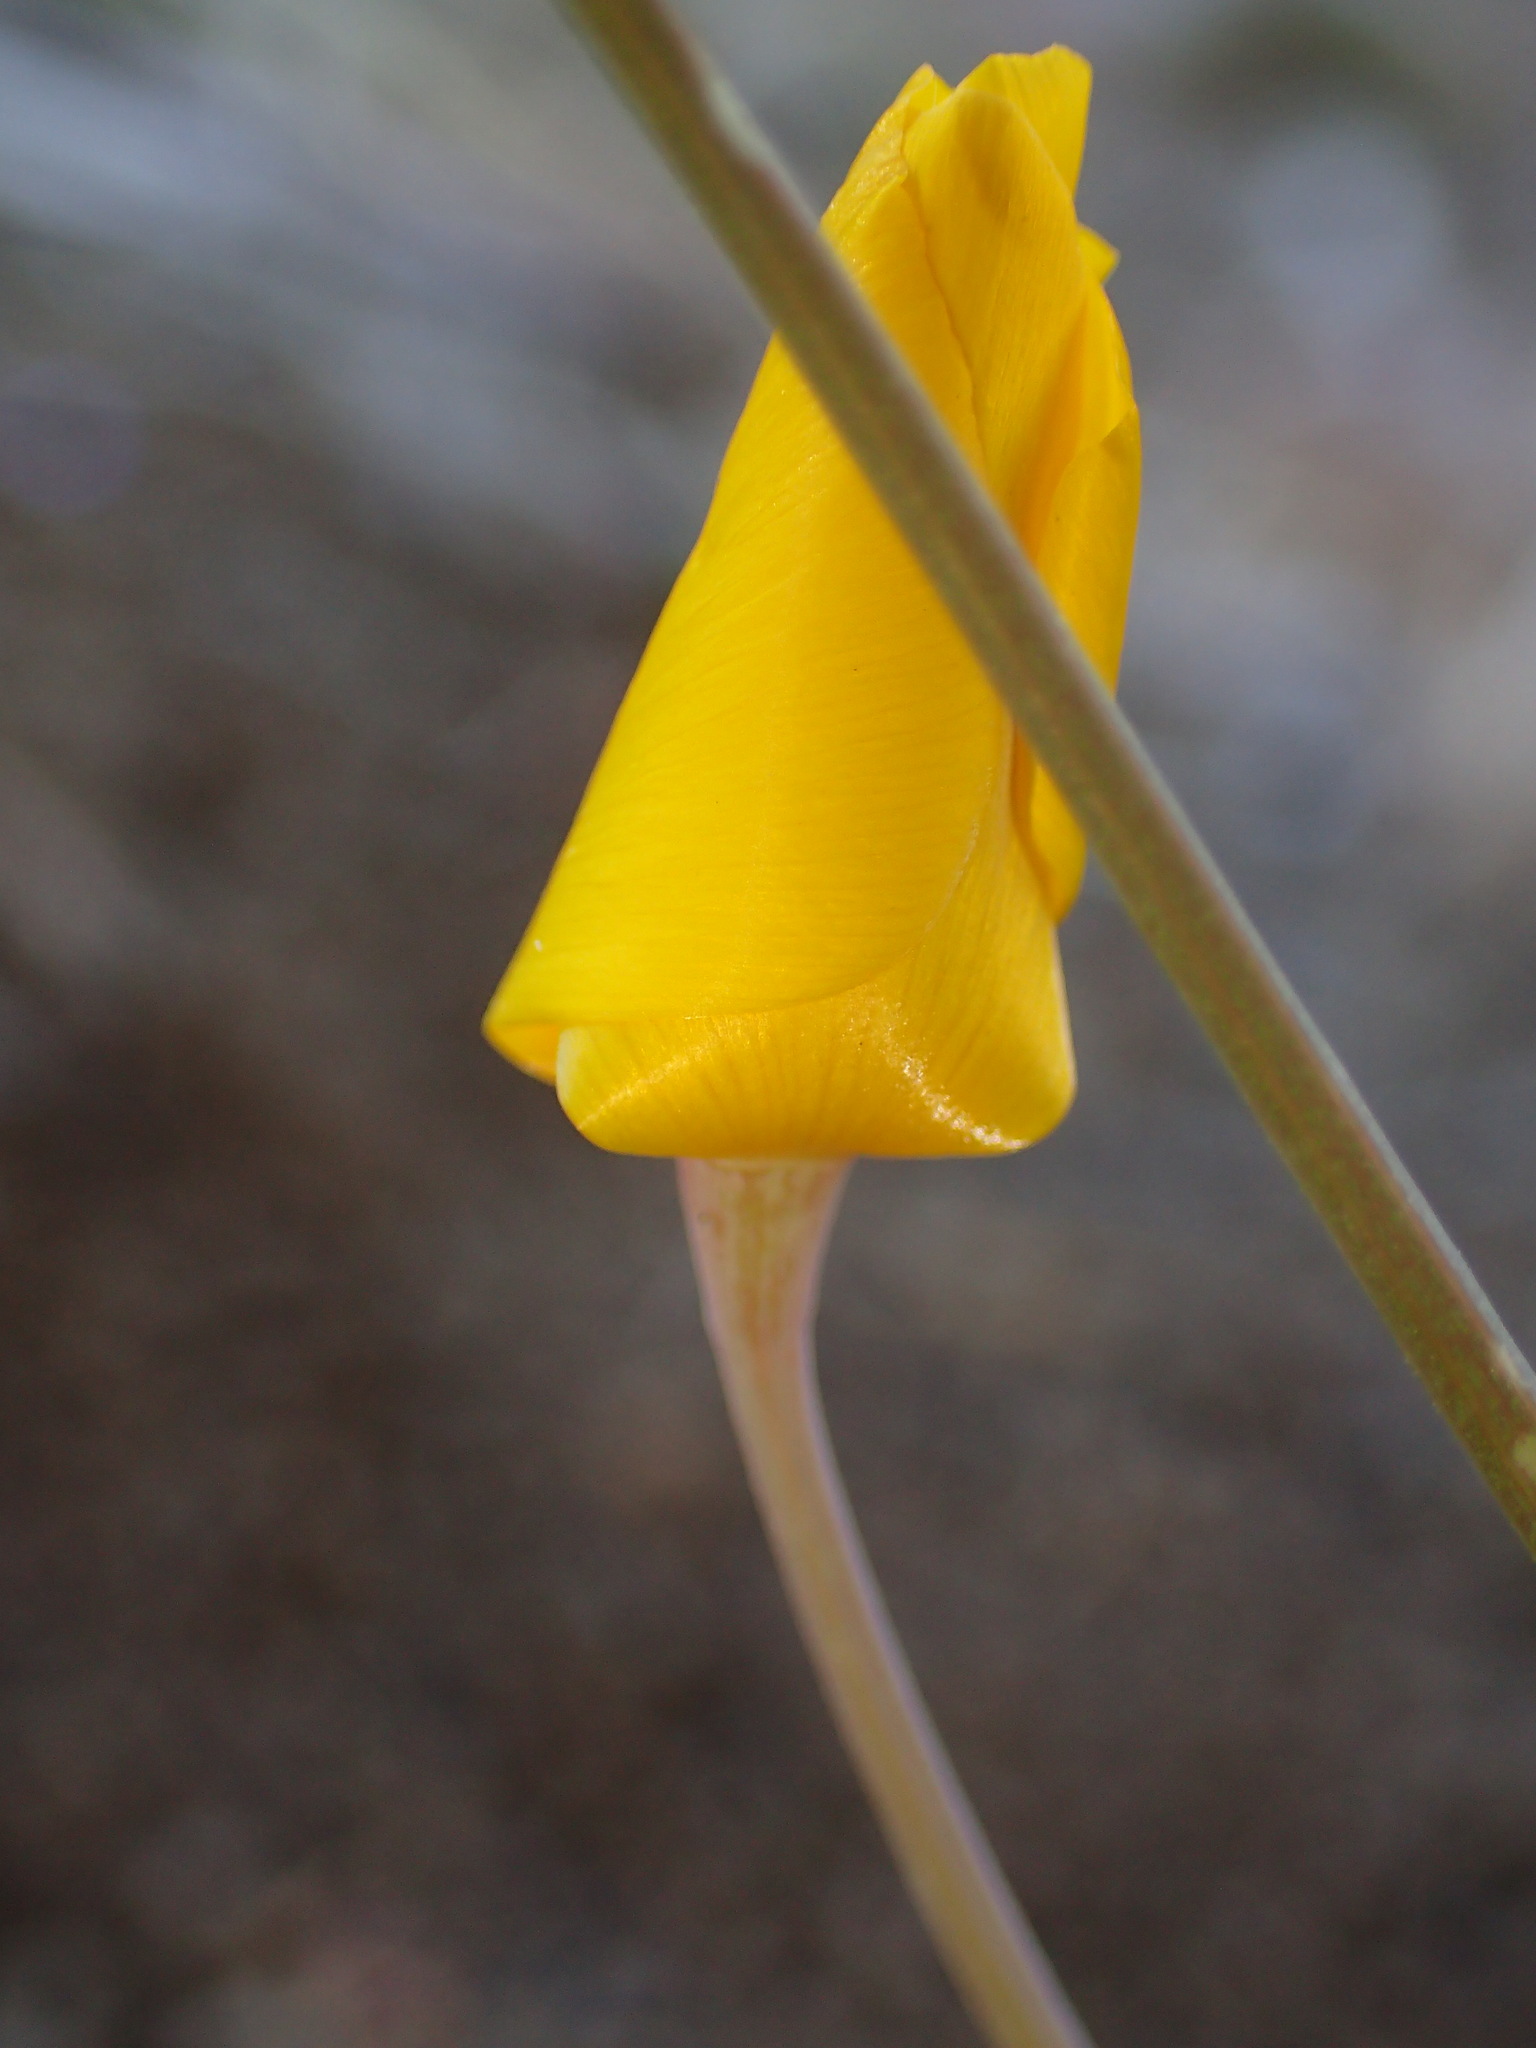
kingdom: Plantae
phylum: Tracheophyta
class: Magnoliopsida
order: Ranunculales
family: Papaveraceae
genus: Eschscholzia
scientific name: Eschscholzia caespitosa
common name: Tufted california-poppy
